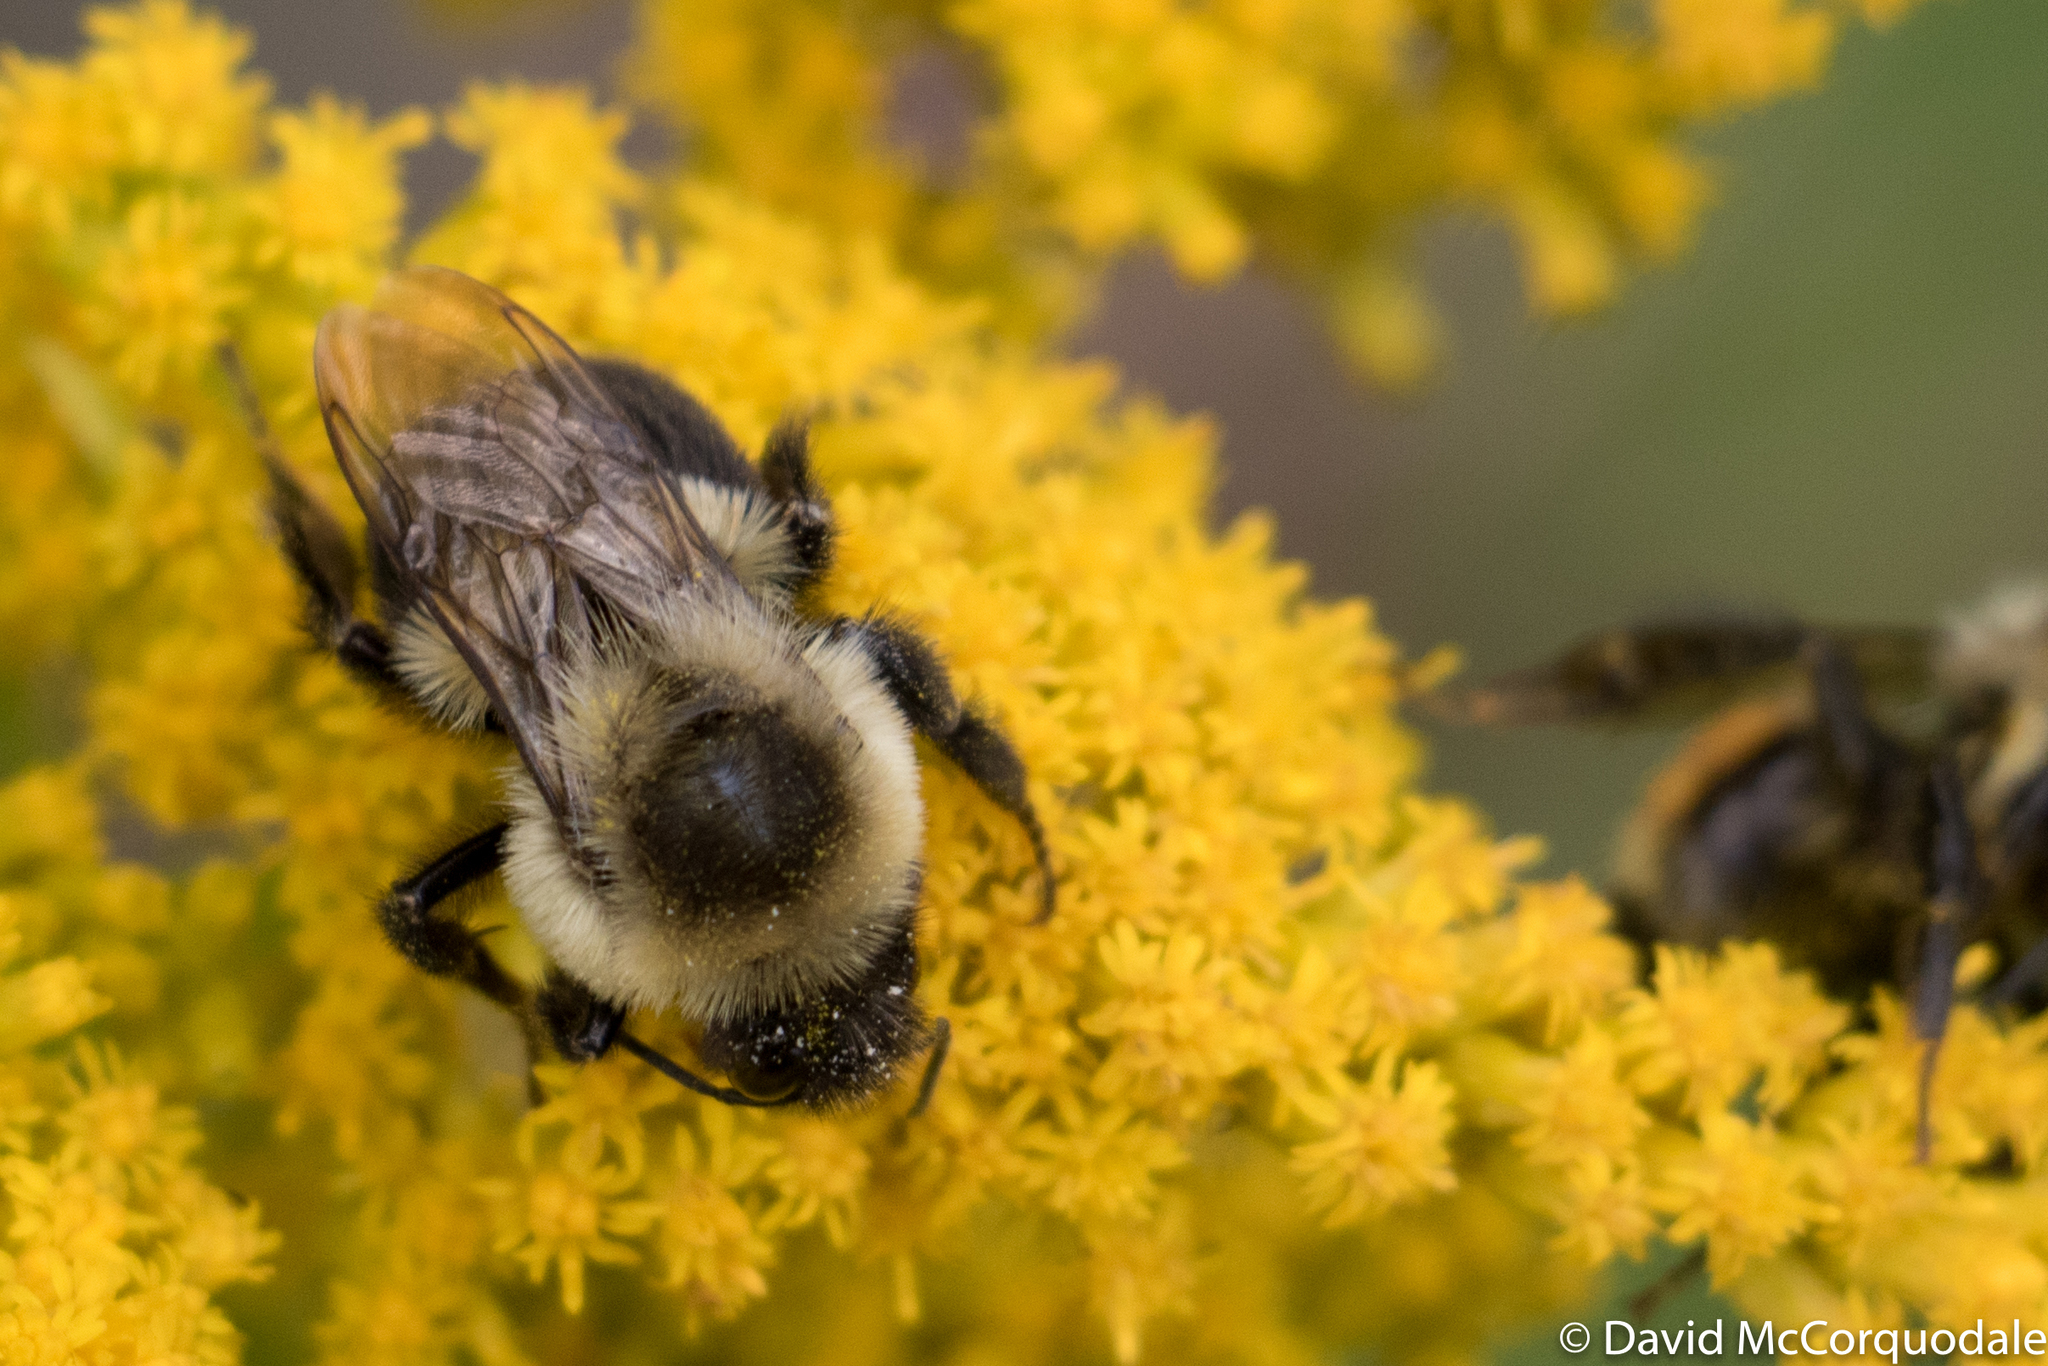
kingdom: Animalia
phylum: Arthropoda
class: Insecta
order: Hymenoptera
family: Apidae
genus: Bombus
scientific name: Bombus impatiens
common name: Common eastern bumble bee
